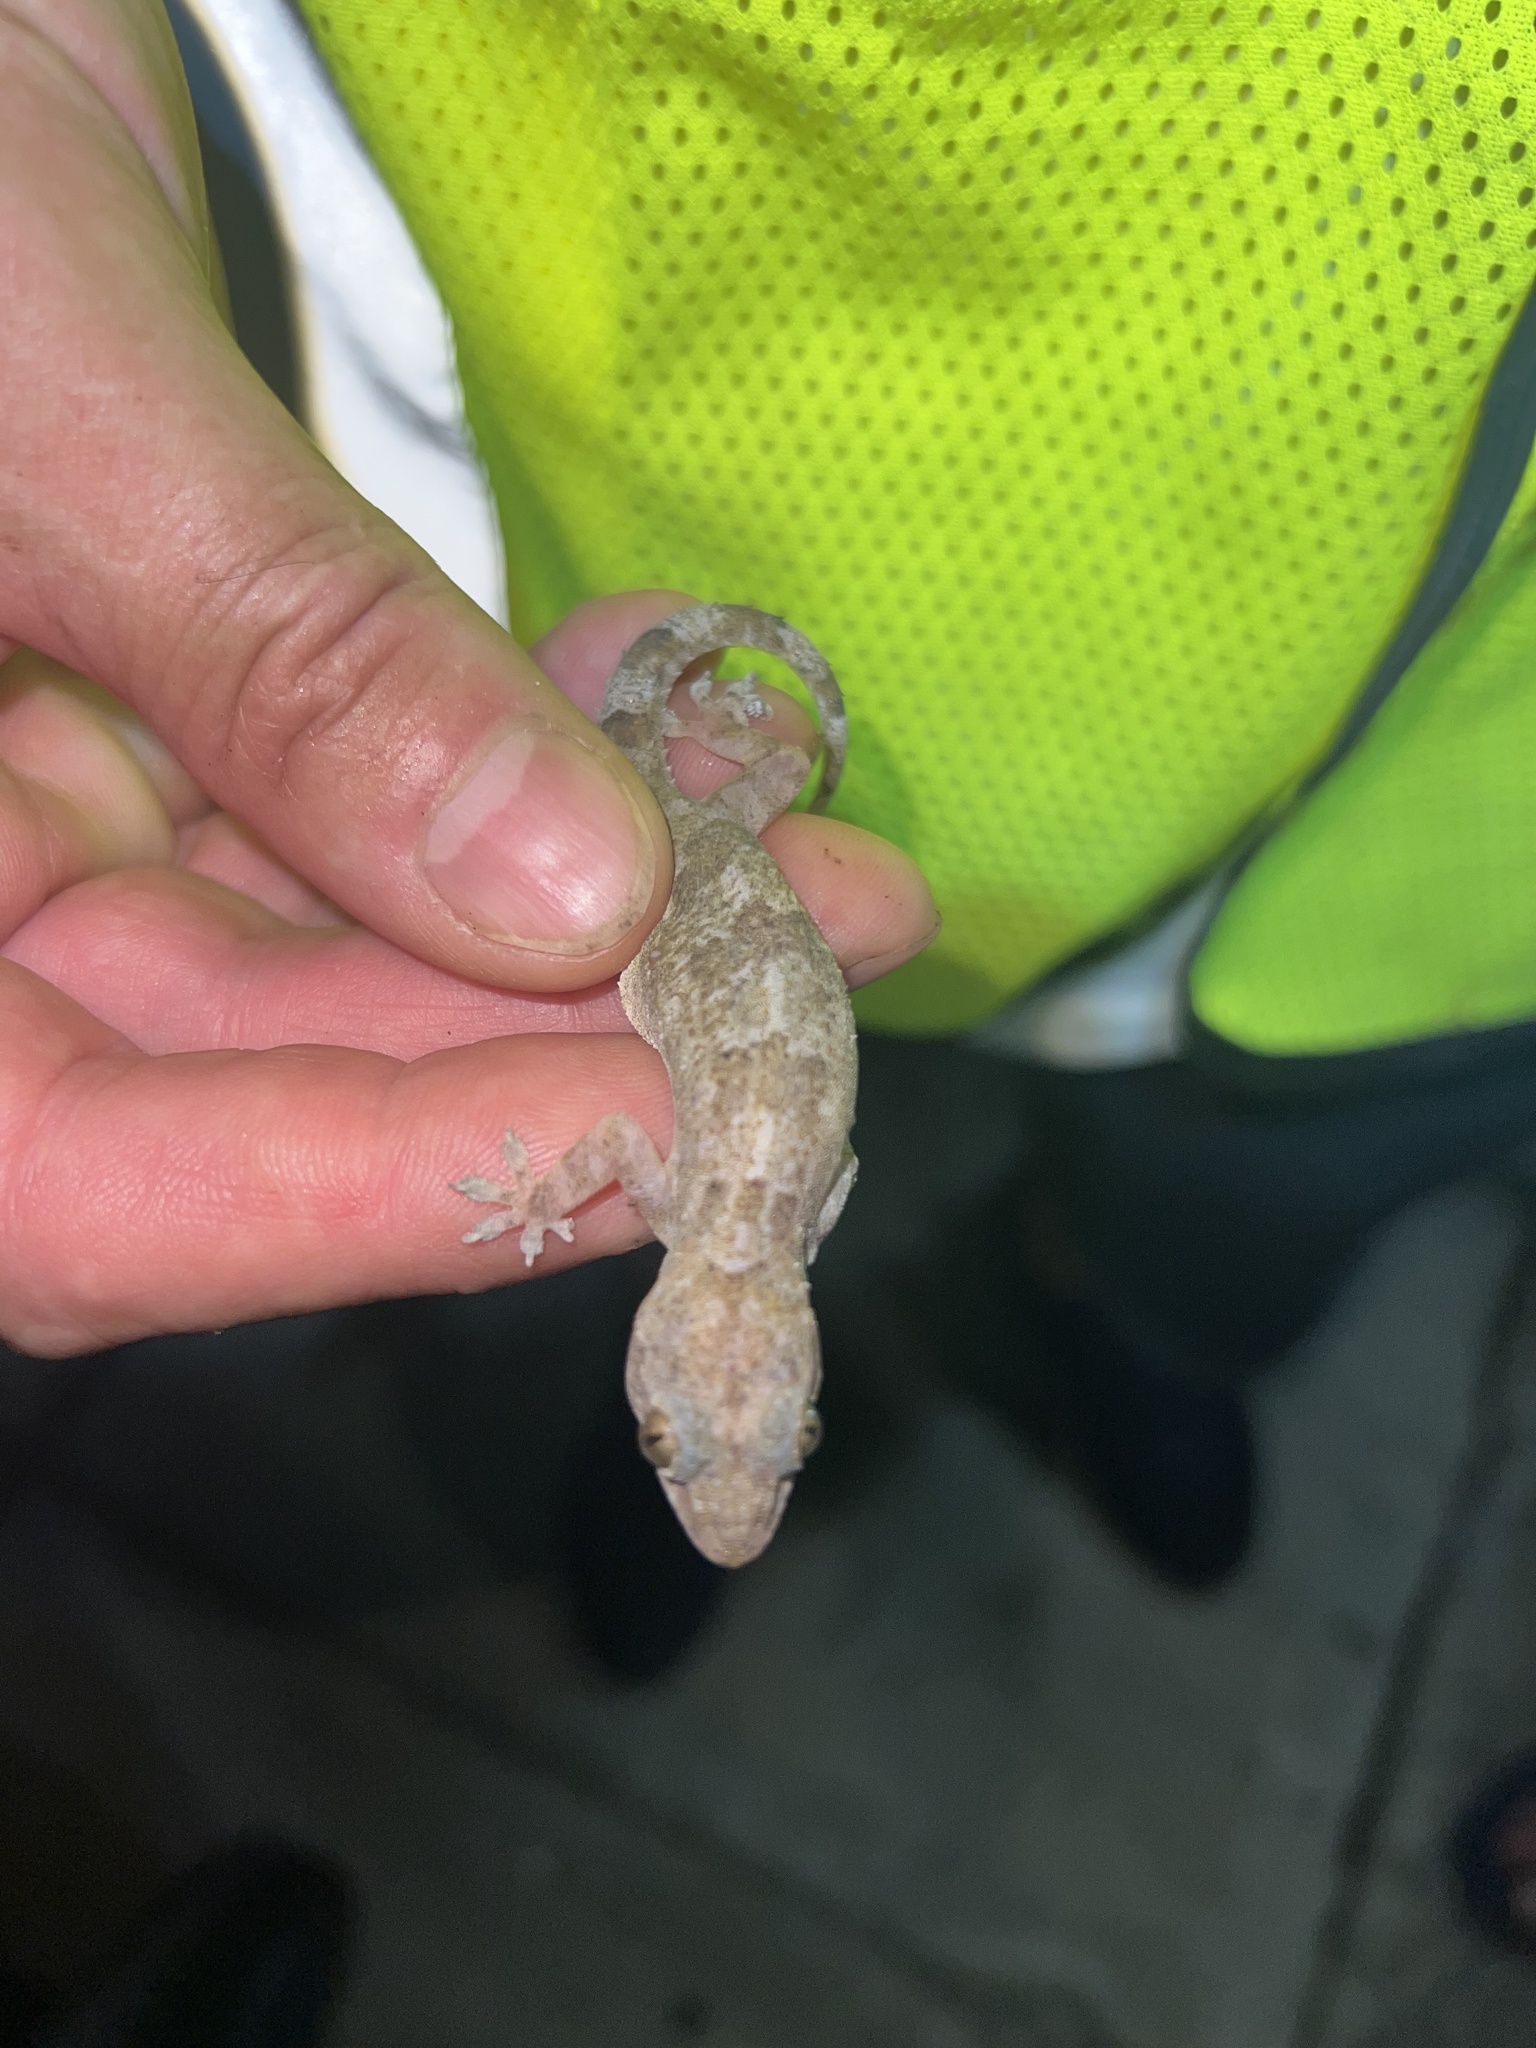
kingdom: Animalia
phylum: Chordata
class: Squamata
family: Gekkonidae
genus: Hemidactylus
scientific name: Hemidactylus mabouia
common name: House gecko
